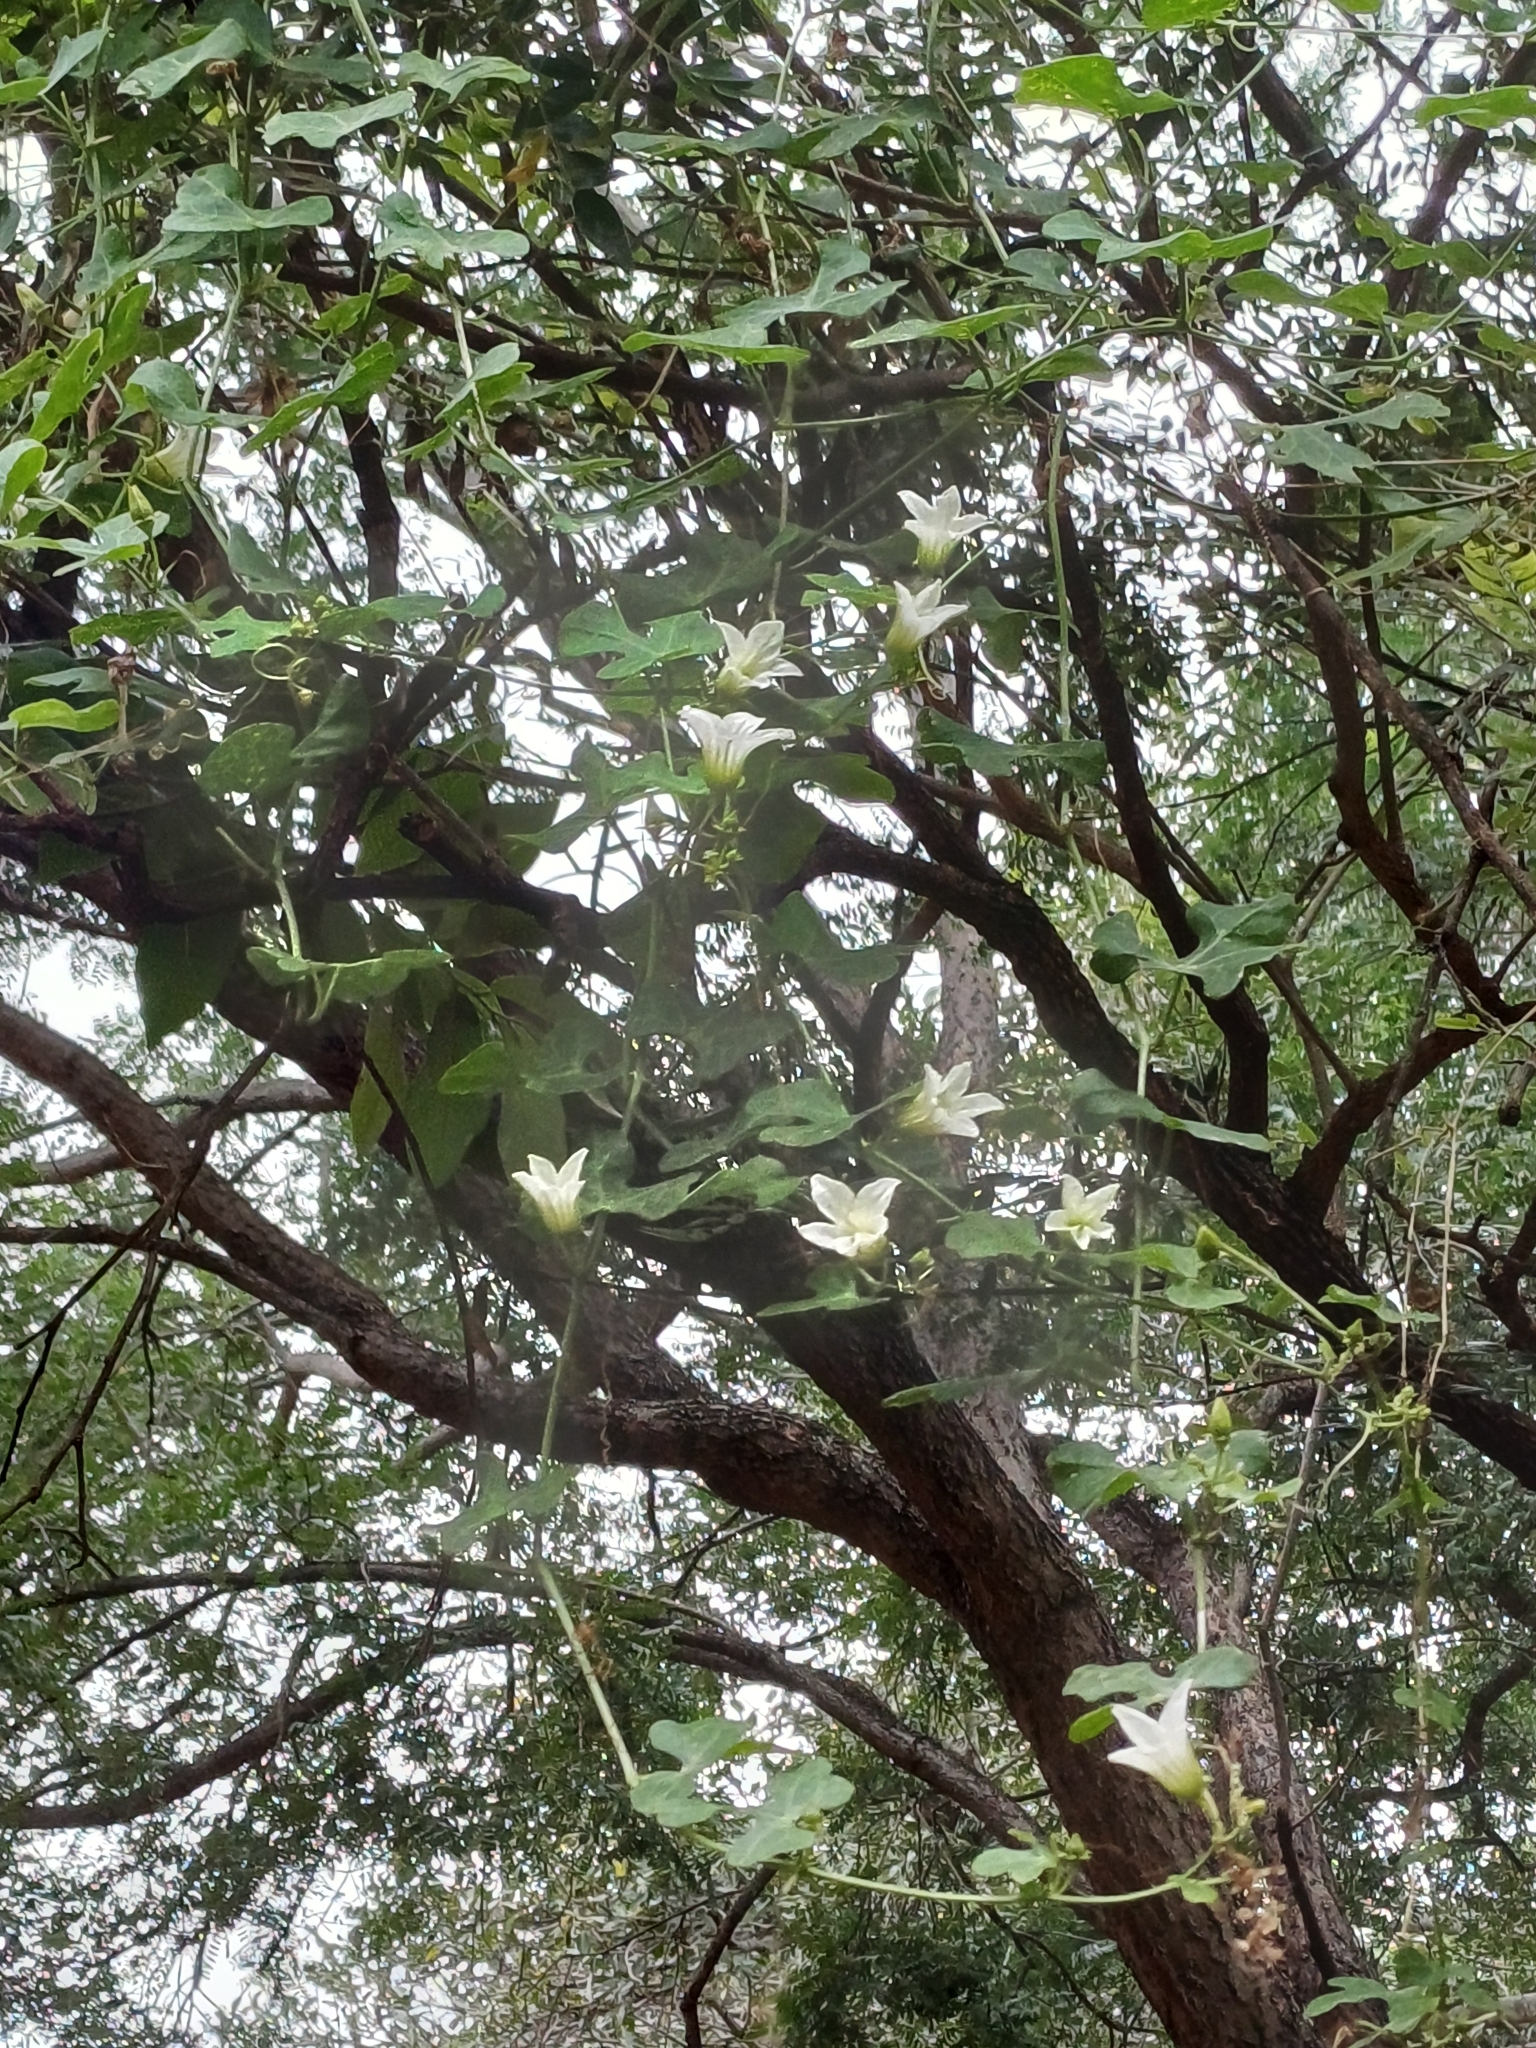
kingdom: Plantae
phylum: Tracheophyta
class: Magnoliopsida
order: Cucurbitales
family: Cucurbitaceae
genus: Coccinia
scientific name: Coccinia grandis
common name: Ivy gourd
